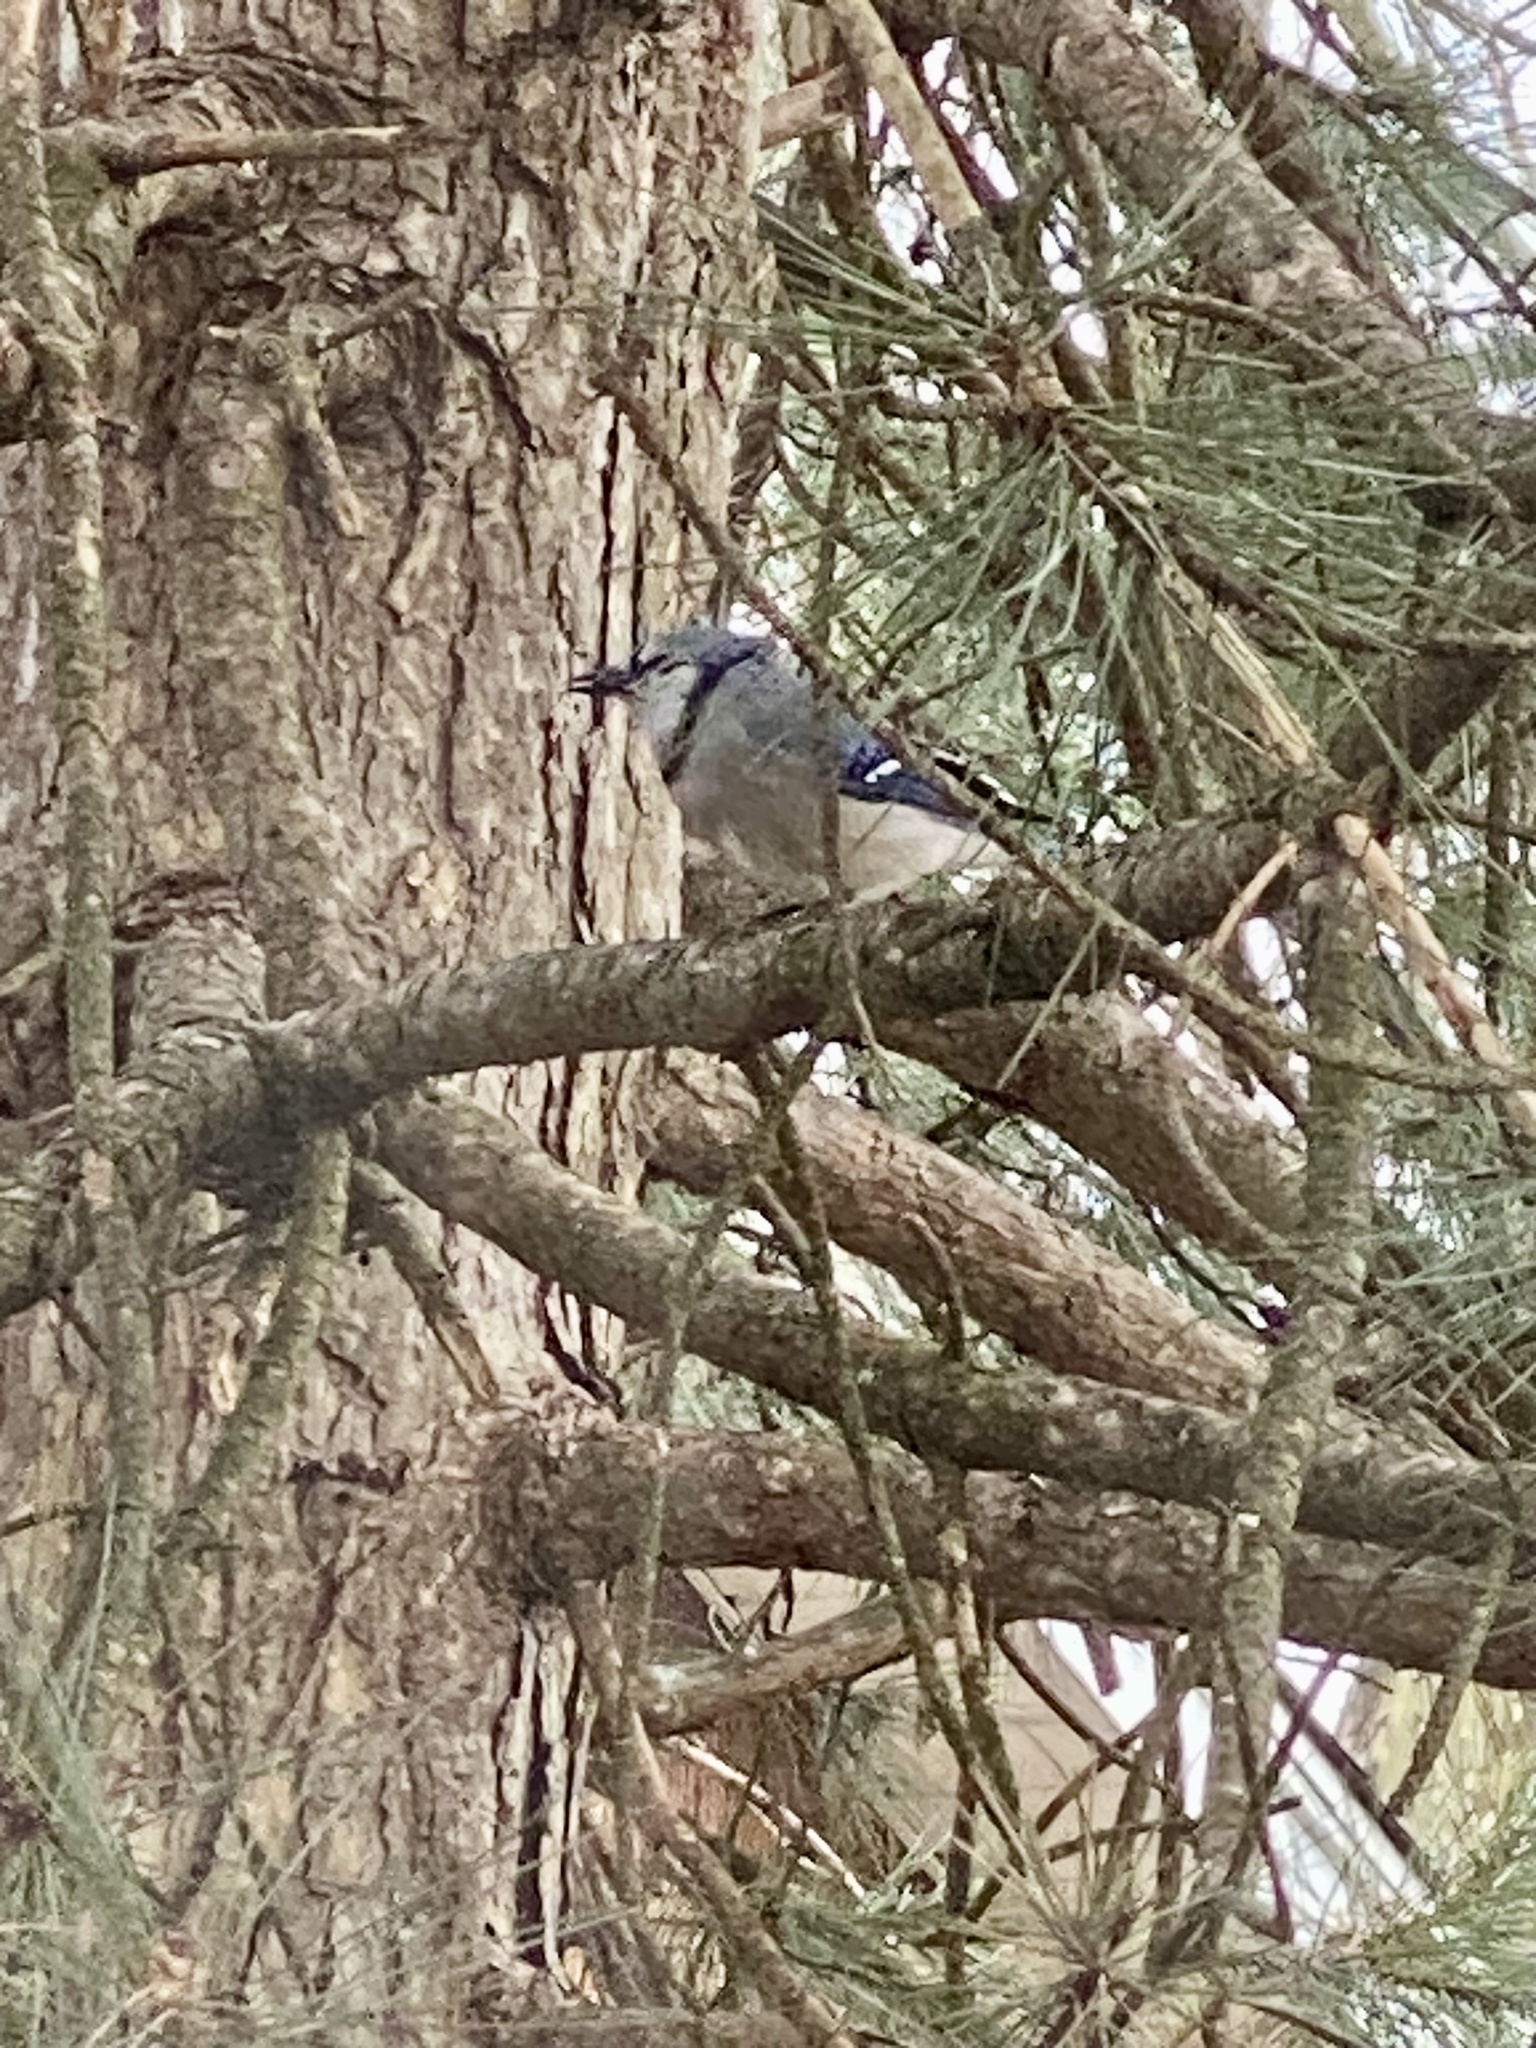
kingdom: Animalia
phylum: Chordata
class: Aves
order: Passeriformes
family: Corvidae
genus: Cyanocitta
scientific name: Cyanocitta cristata
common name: Blue jay
